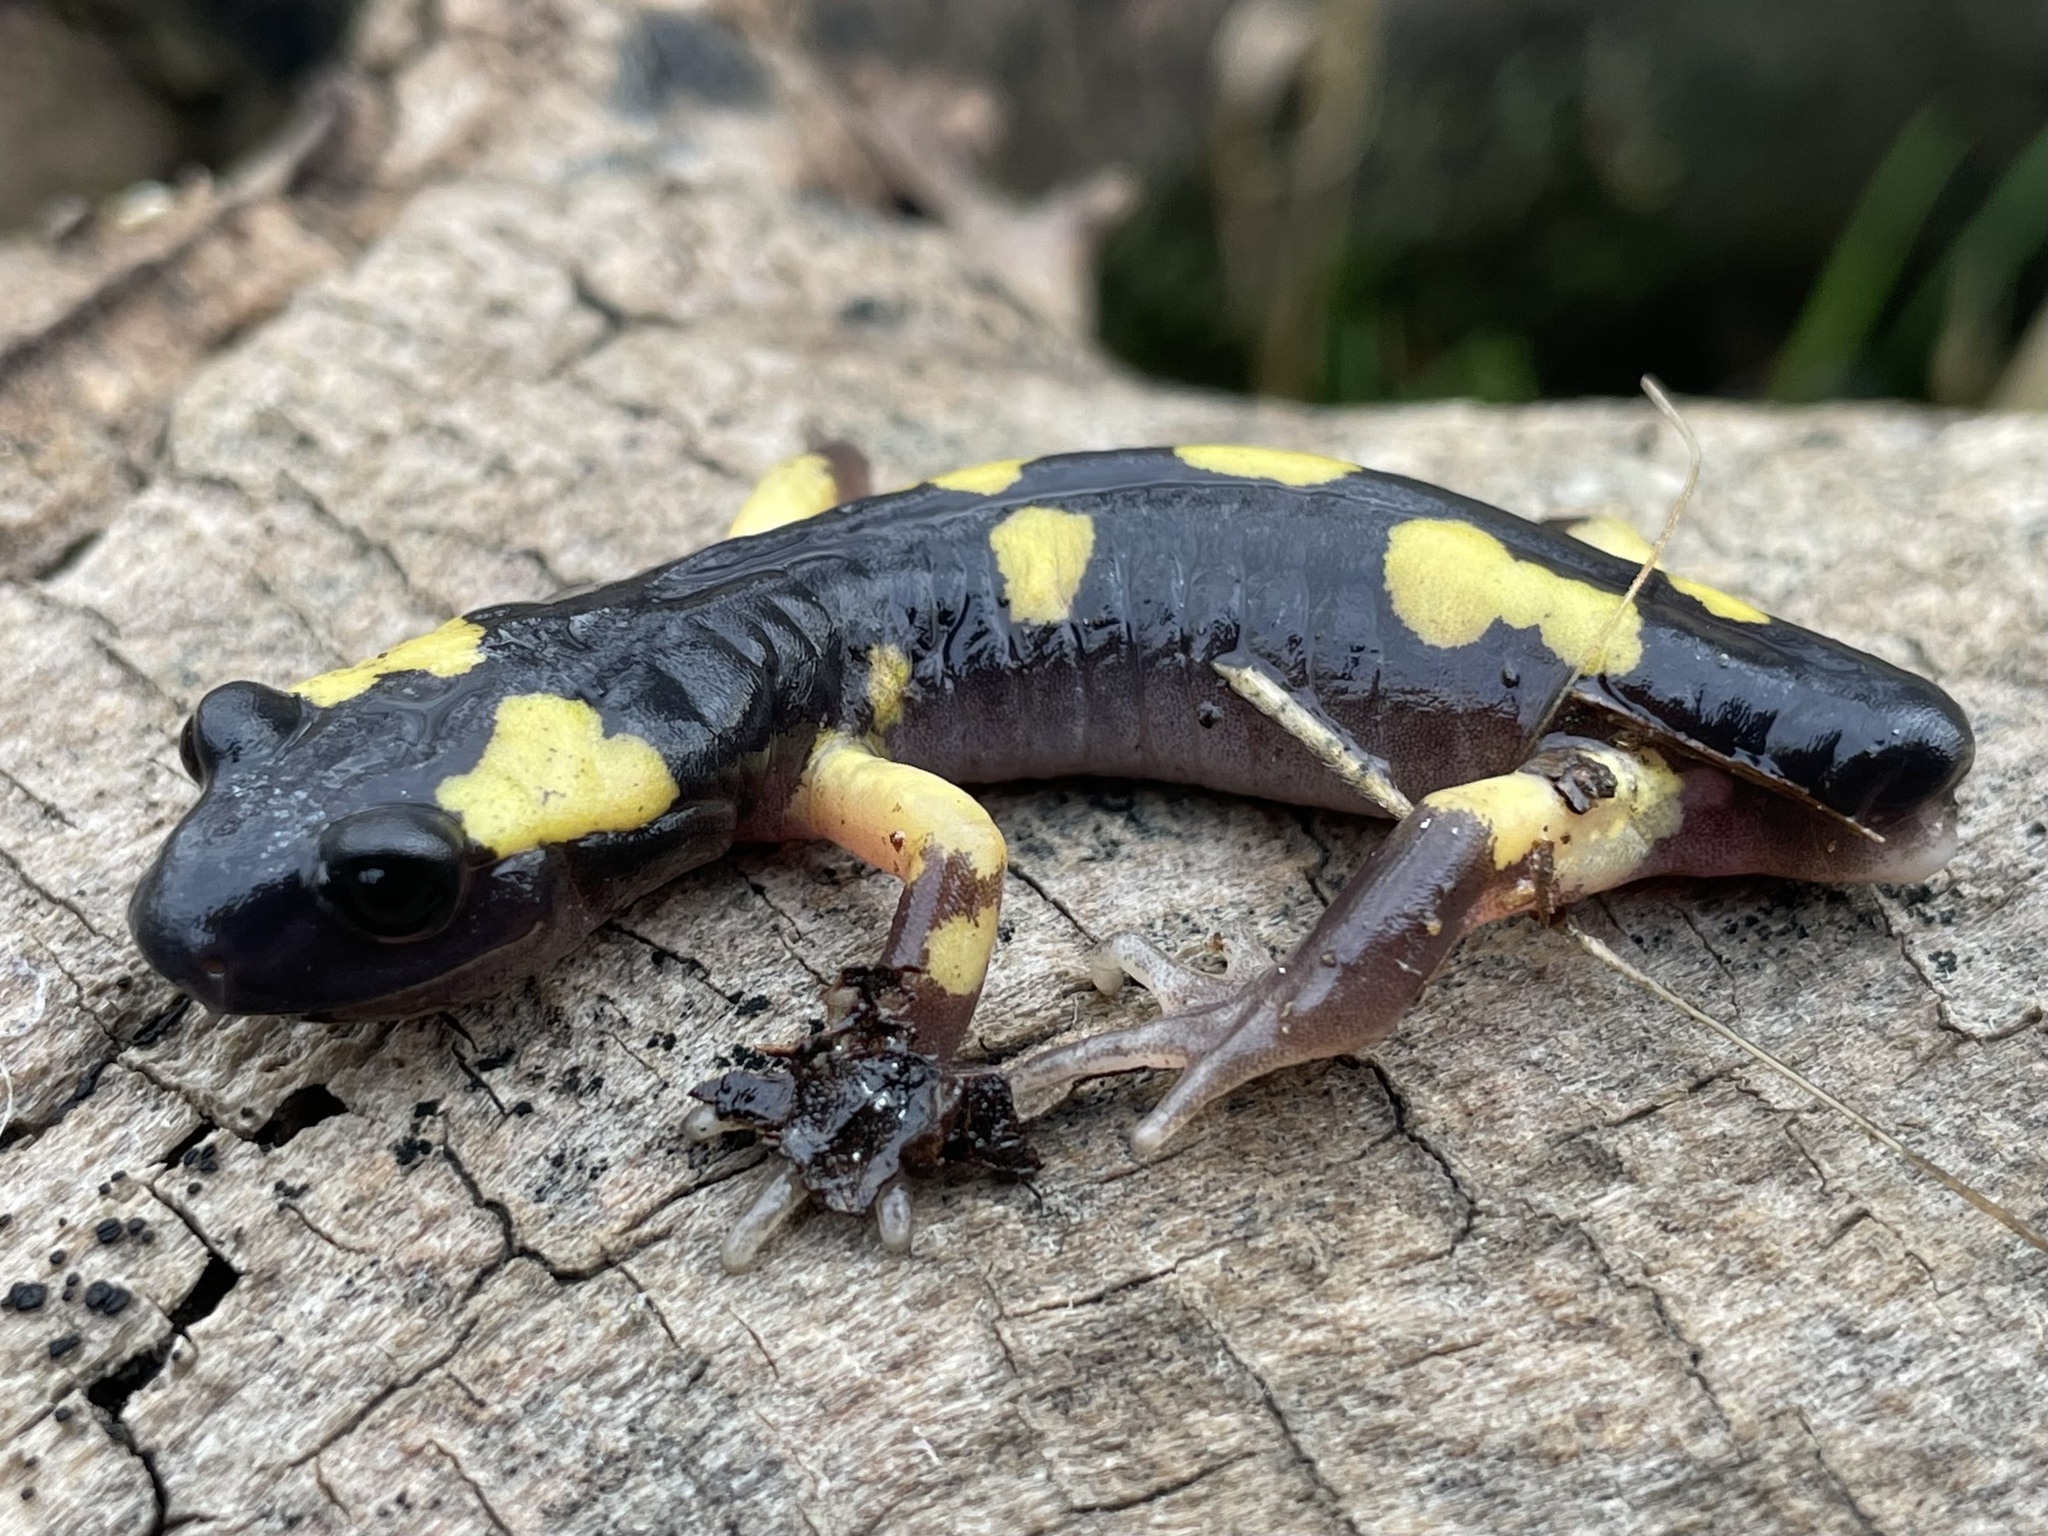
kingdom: Animalia
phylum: Chordata
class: Amphibia
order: Caudata
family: Plethodontidae
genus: Ensatina
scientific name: Ensatina eschscholtzii
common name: Ensatina
